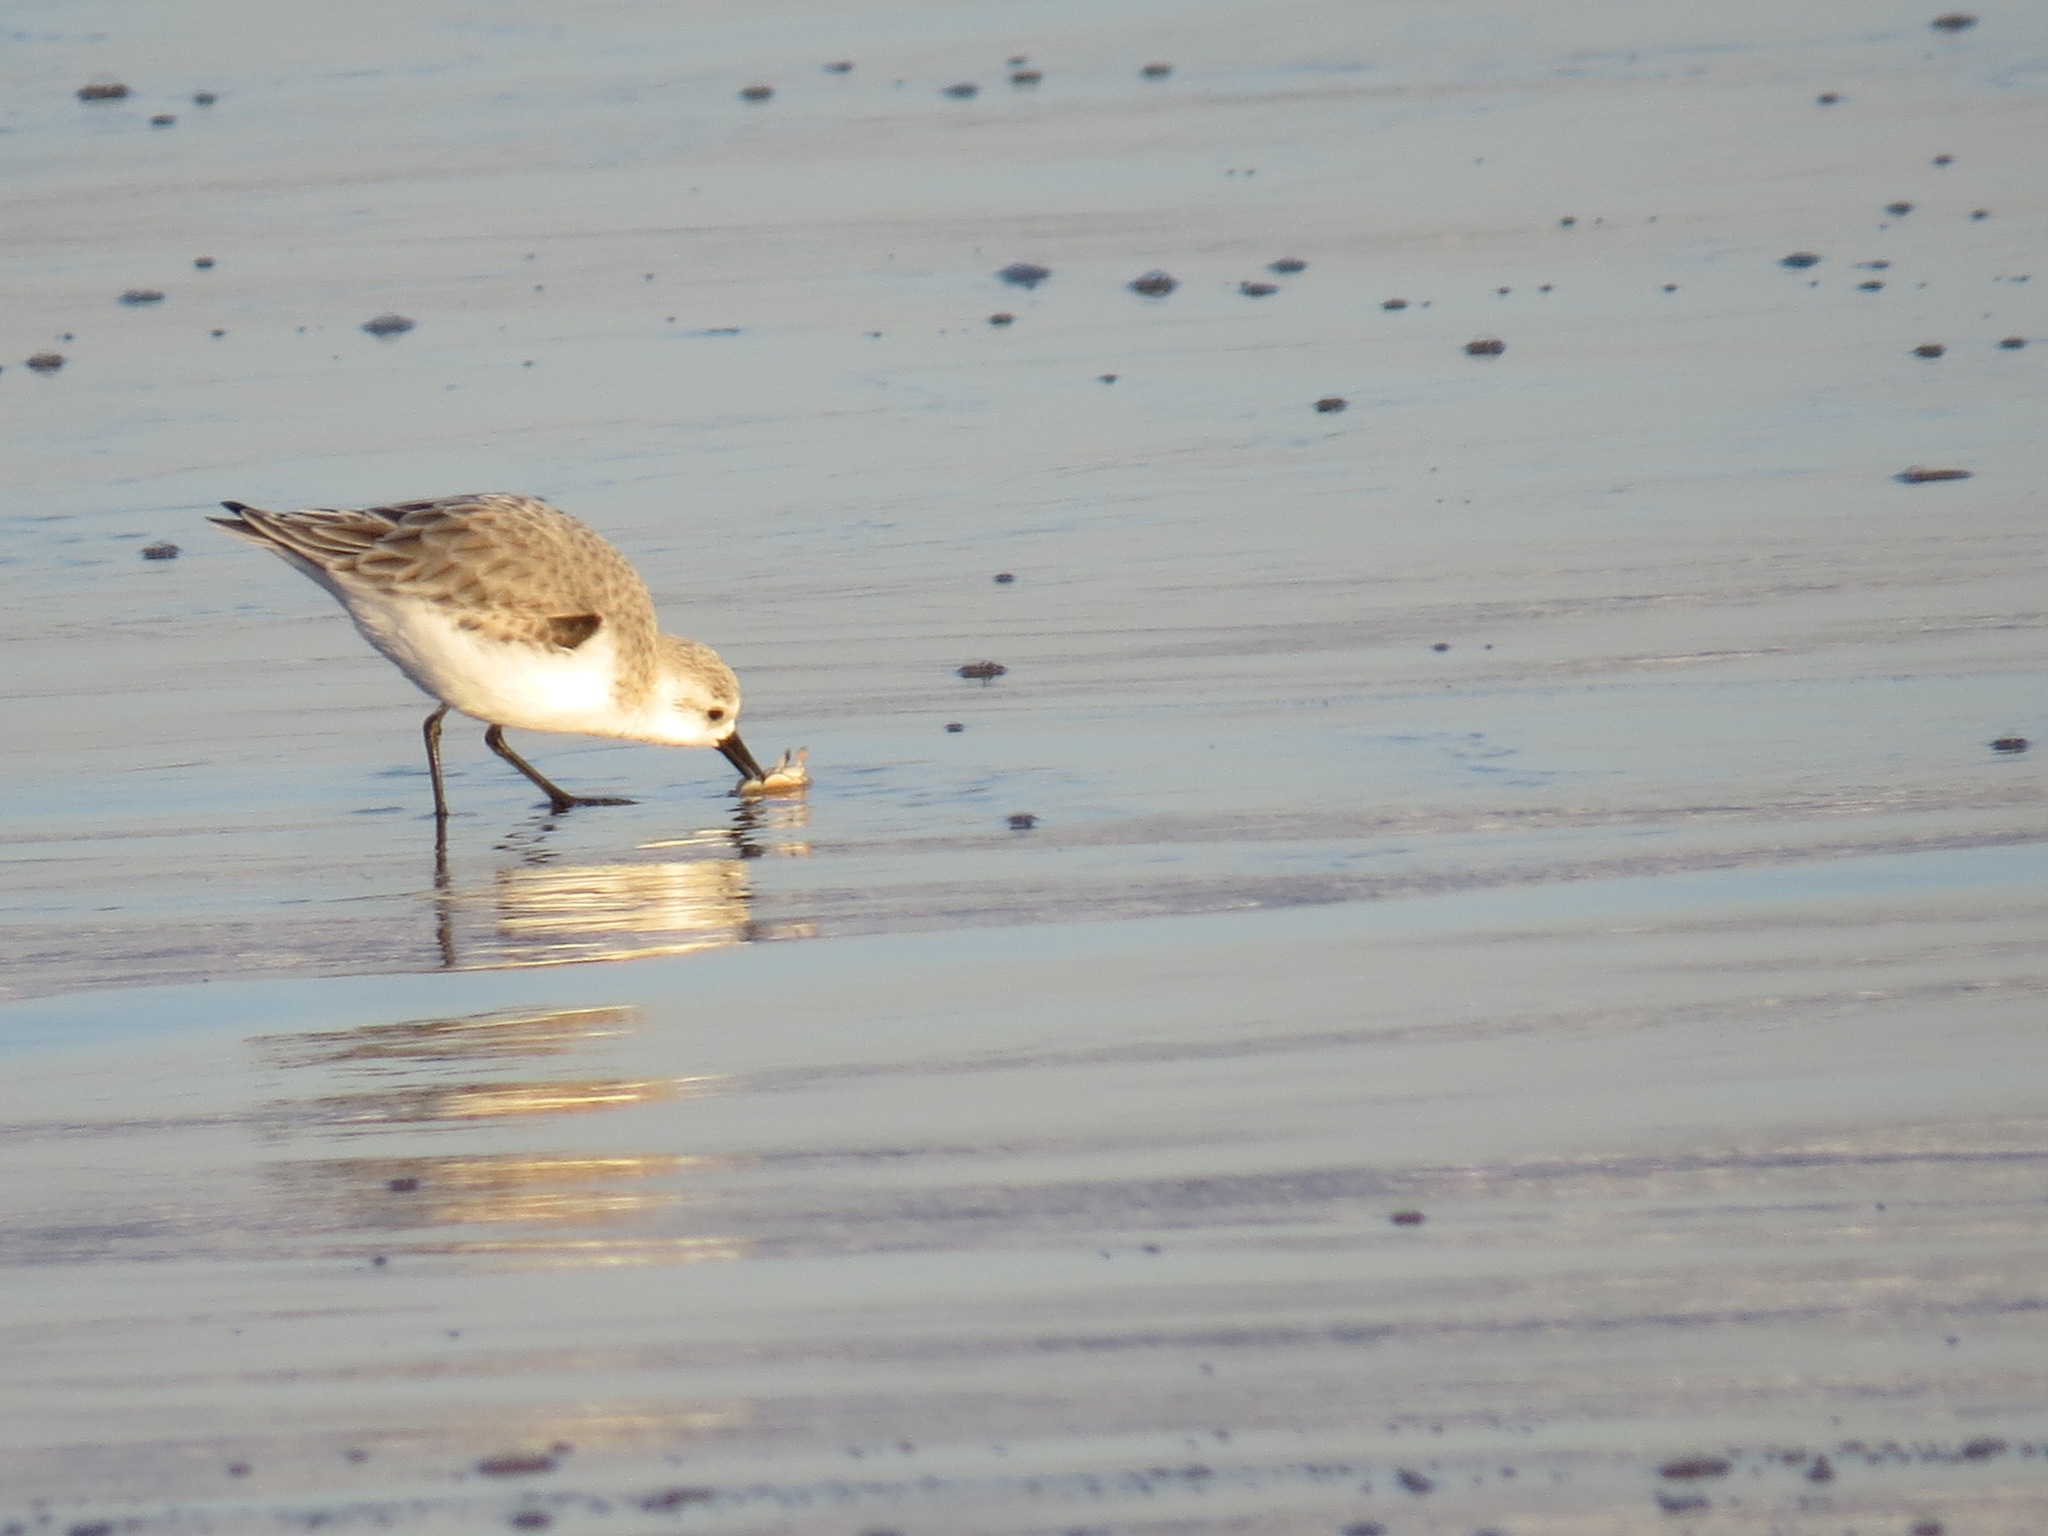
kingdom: Animalia
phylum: Chordata
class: Aves
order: Charadriiformes
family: Scolopacidae
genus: Calidris
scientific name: Calidris alba
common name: Sanderling
